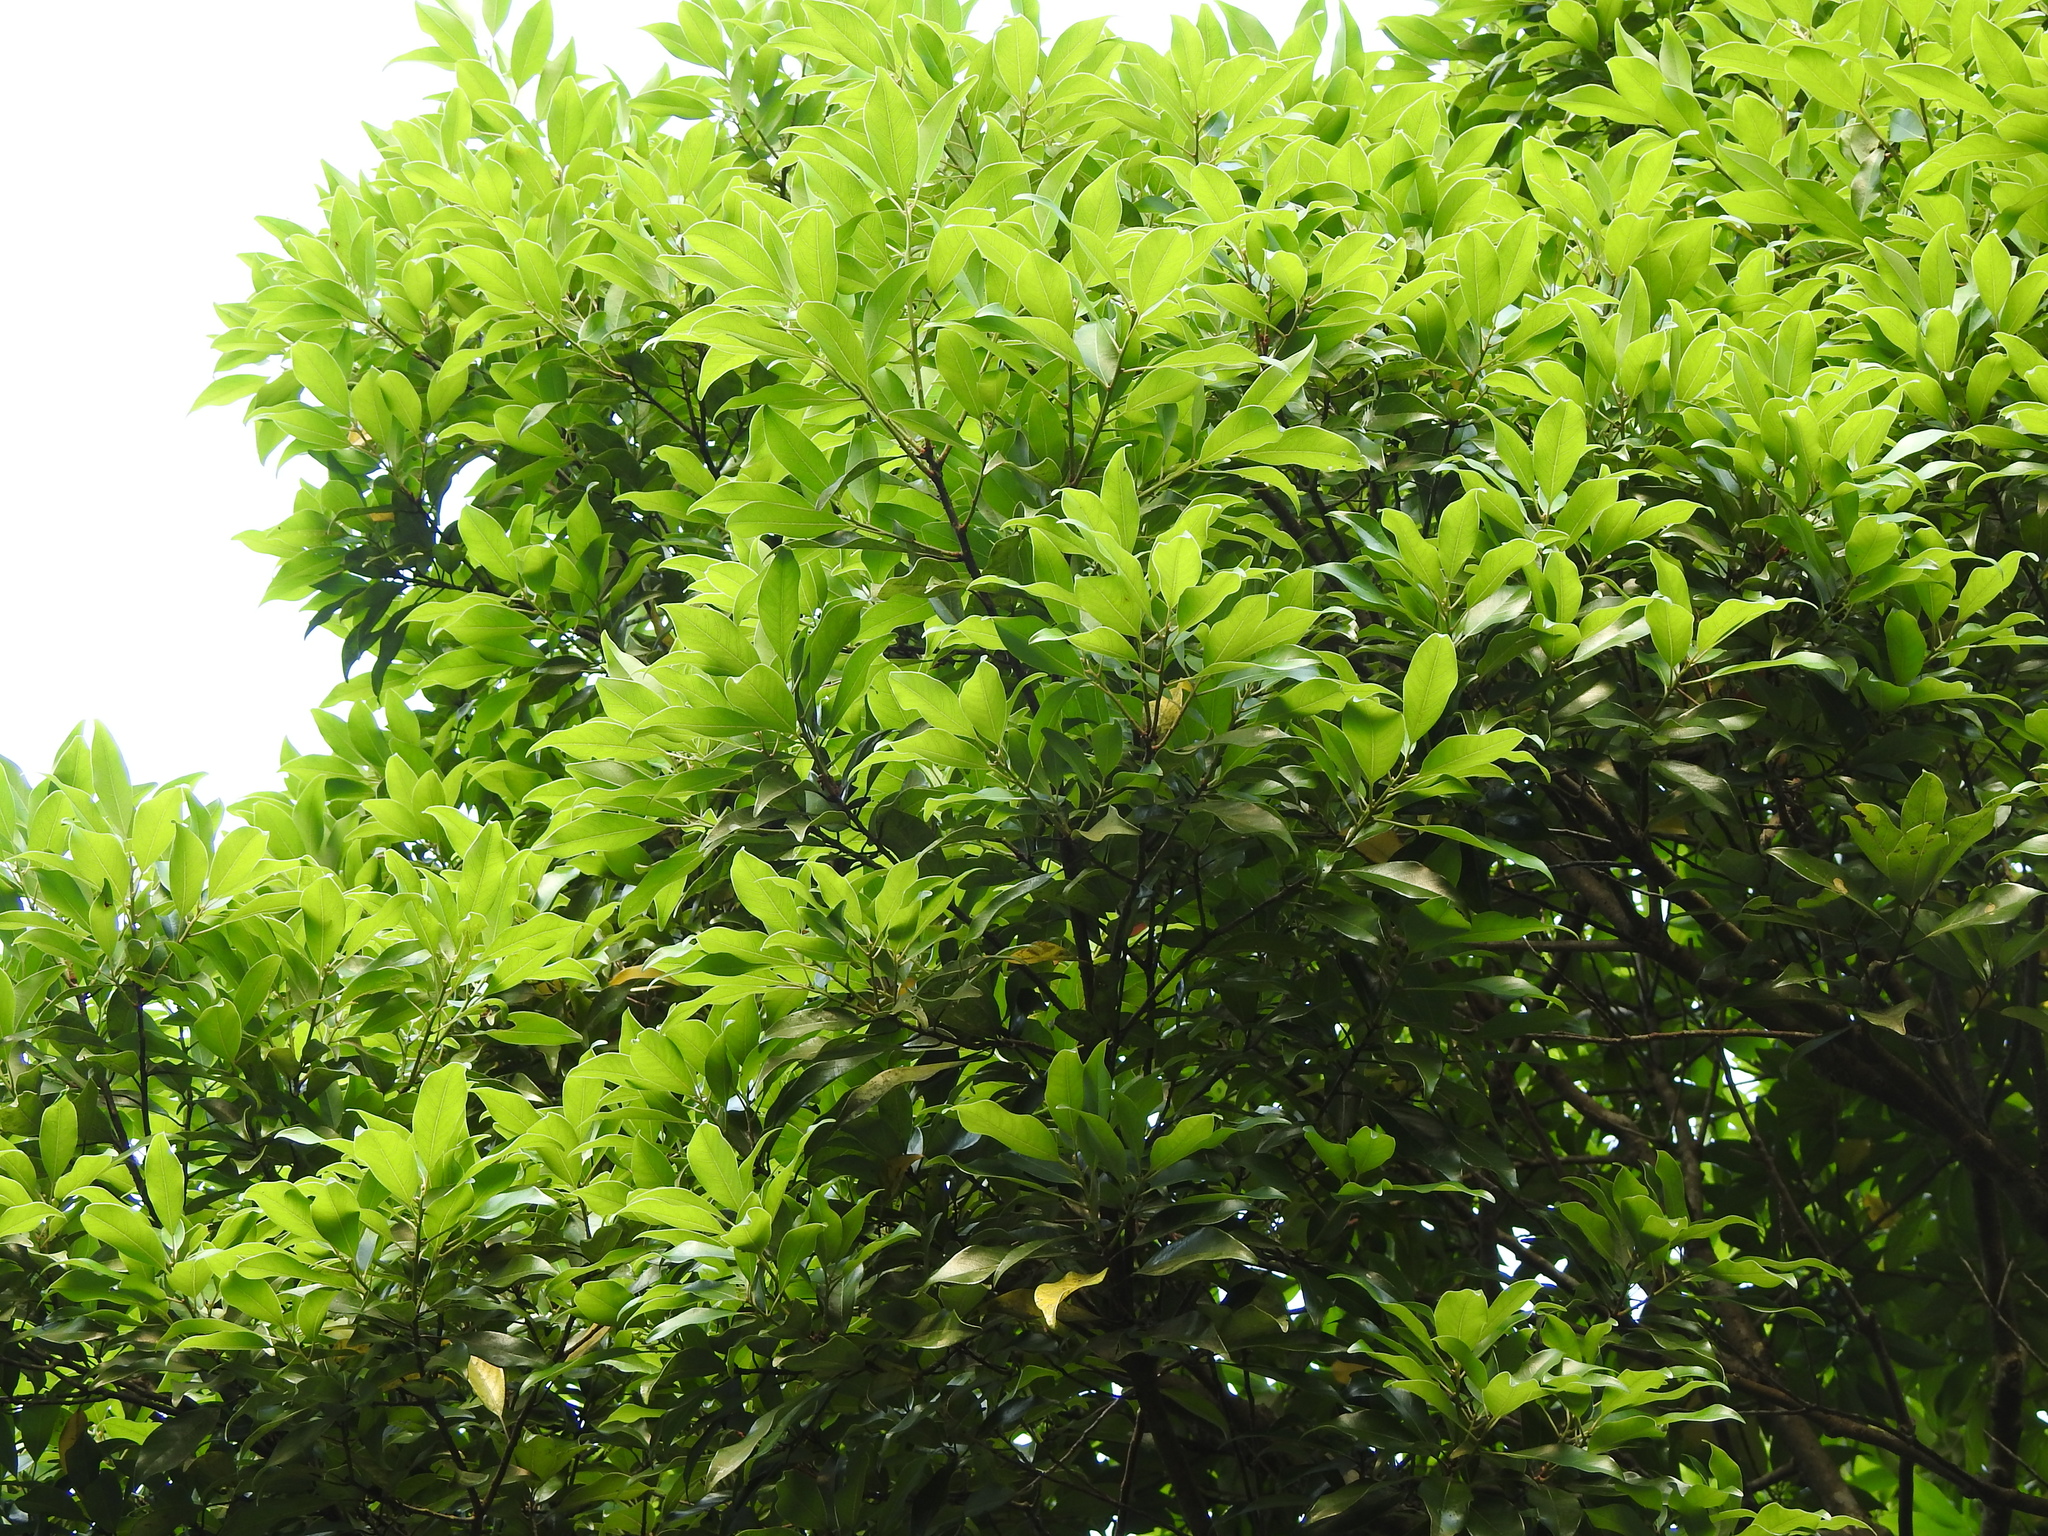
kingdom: Plantae
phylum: Tracheophyta
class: Magnoliopsida
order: Laurales
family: Lauraceae
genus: Litsea
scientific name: Litsea coreana
